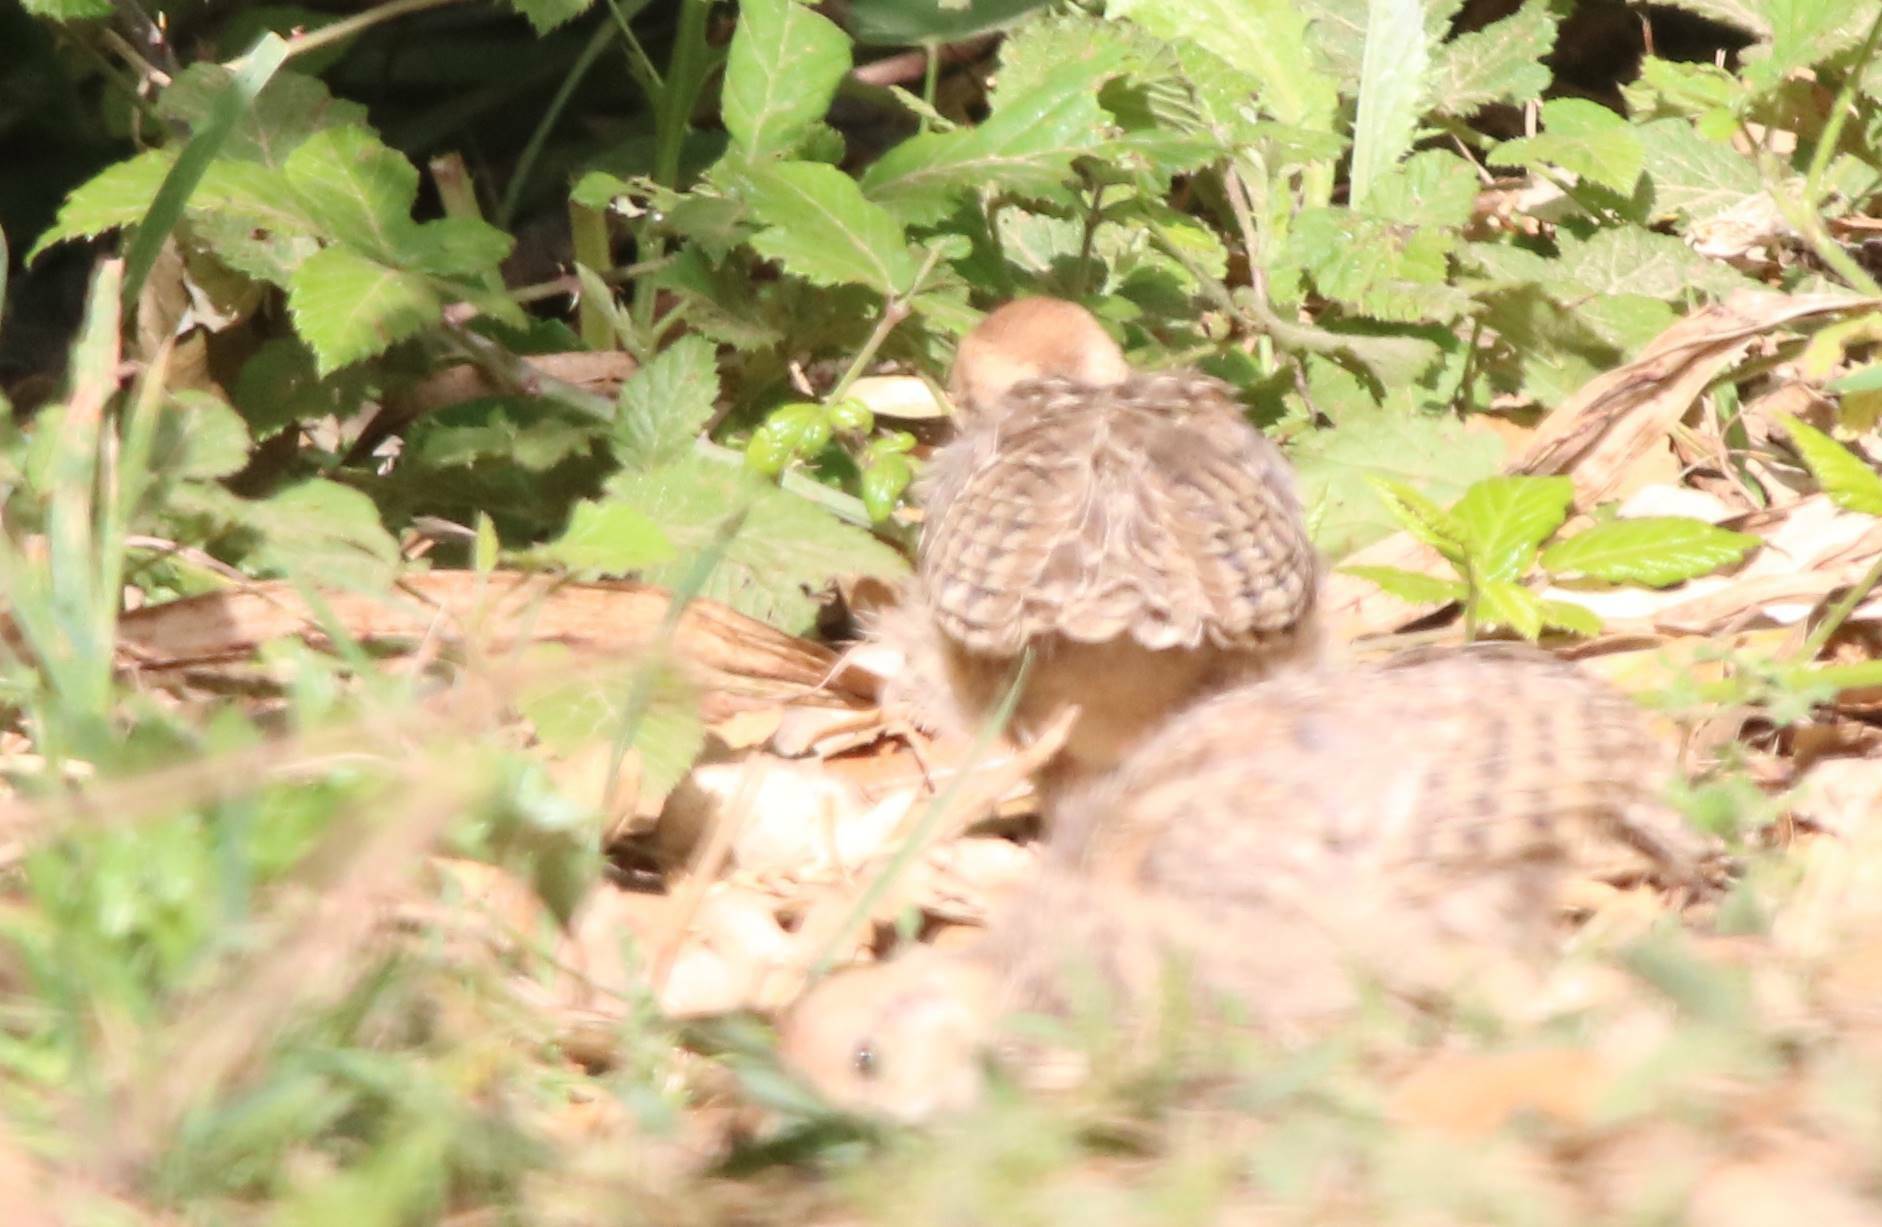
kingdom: Animalia
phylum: Chordata
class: Aves
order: Galliformes
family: Phasianidae
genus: Alectoris
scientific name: Alectoris barbara
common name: Barbary partridge
